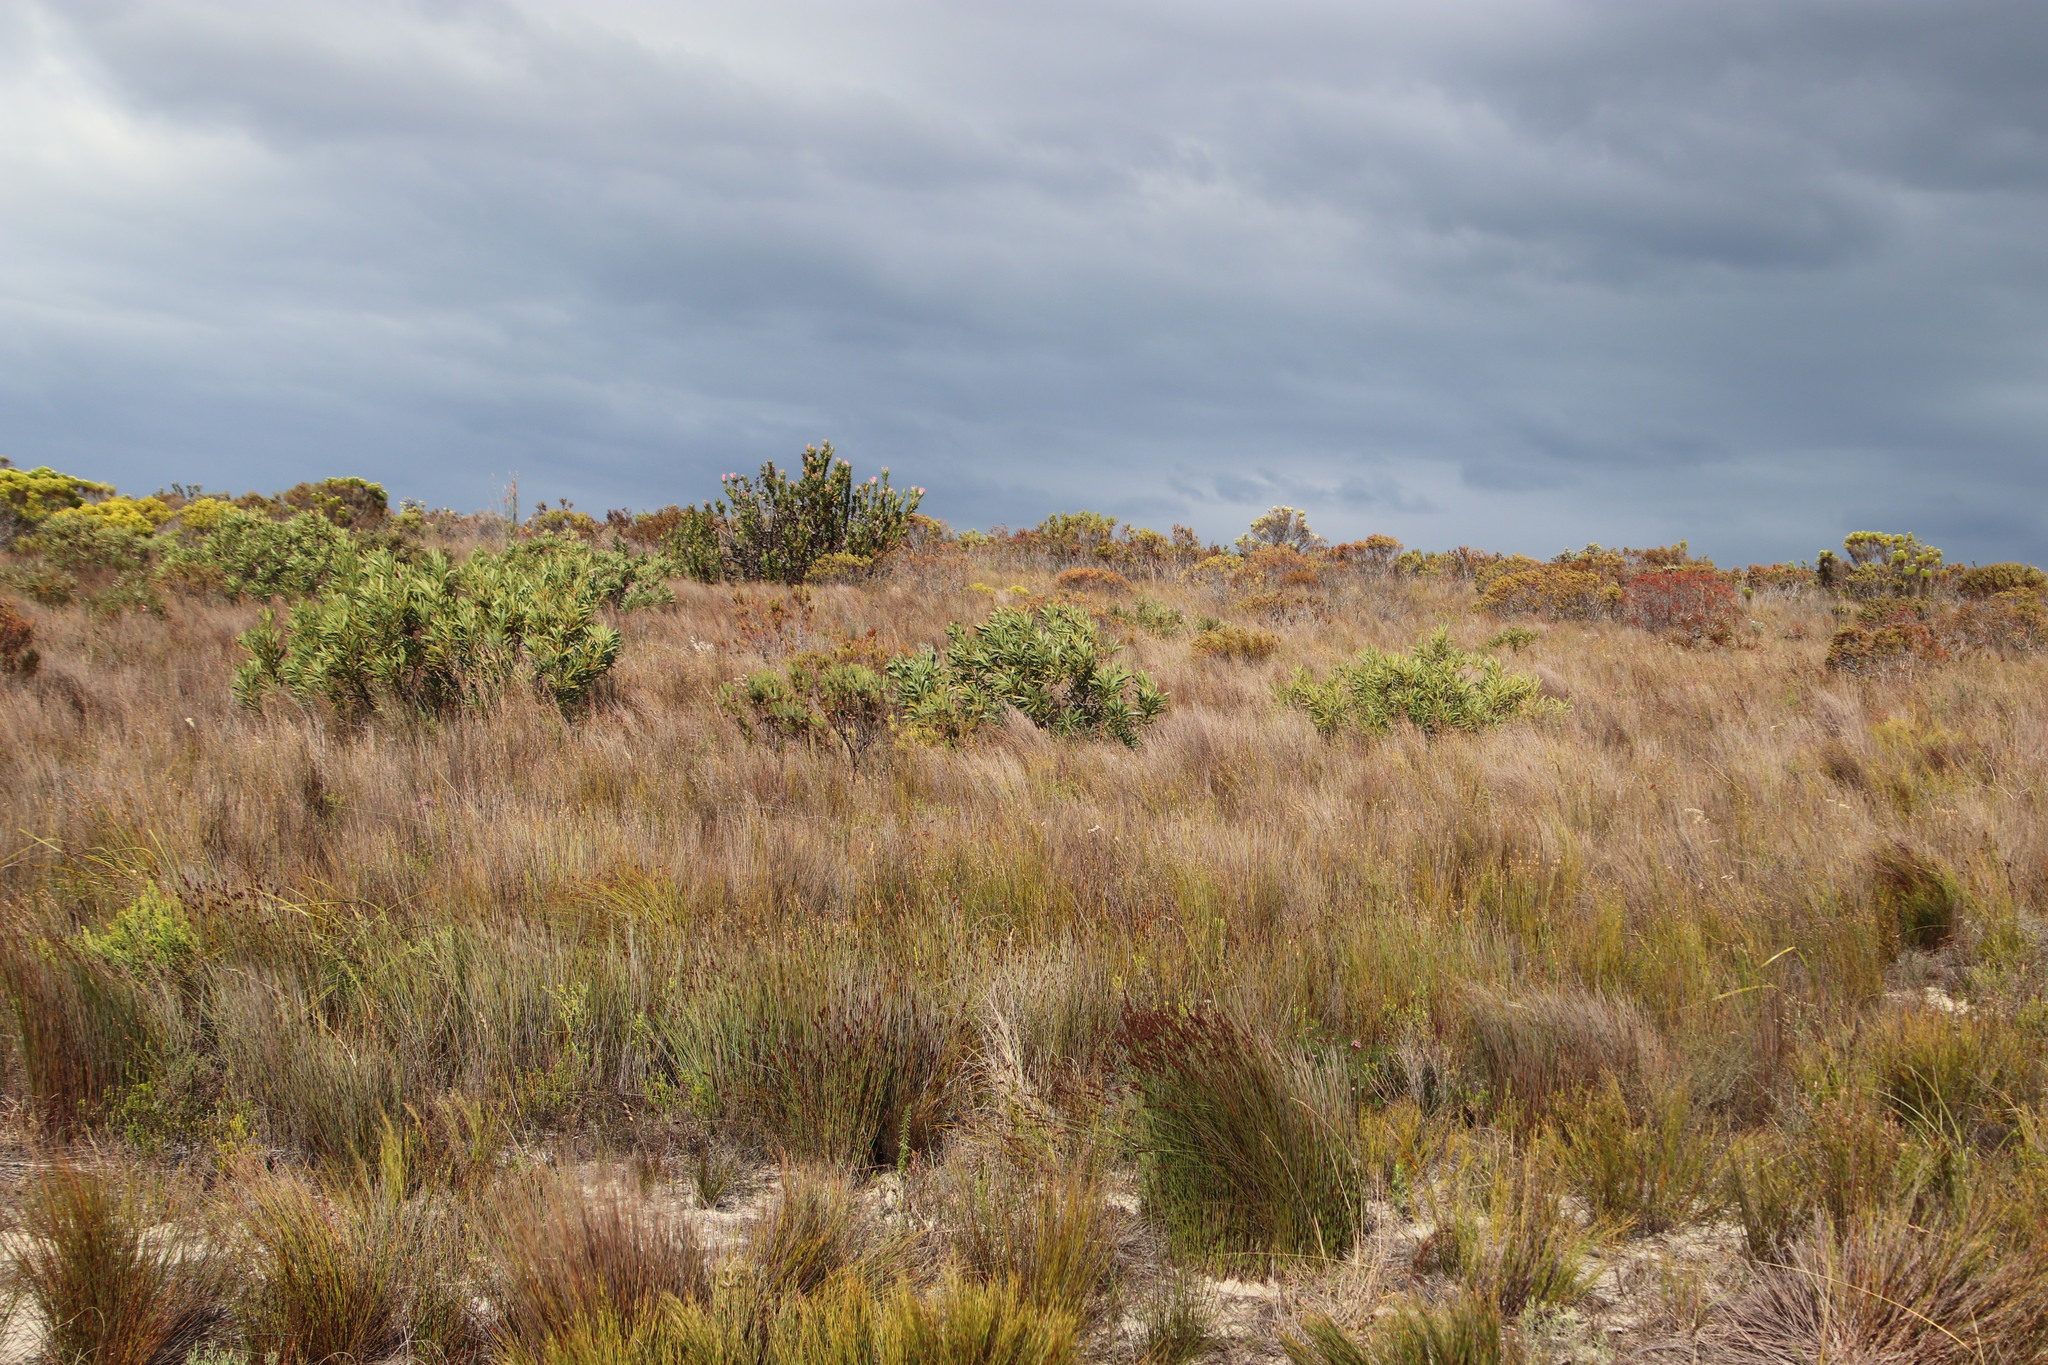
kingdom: Plantae
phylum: Tracheophyta
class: Magnoliopsida
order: Proteales
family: Proteaceae
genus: Protea
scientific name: Protea repens
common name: Sugarbush
